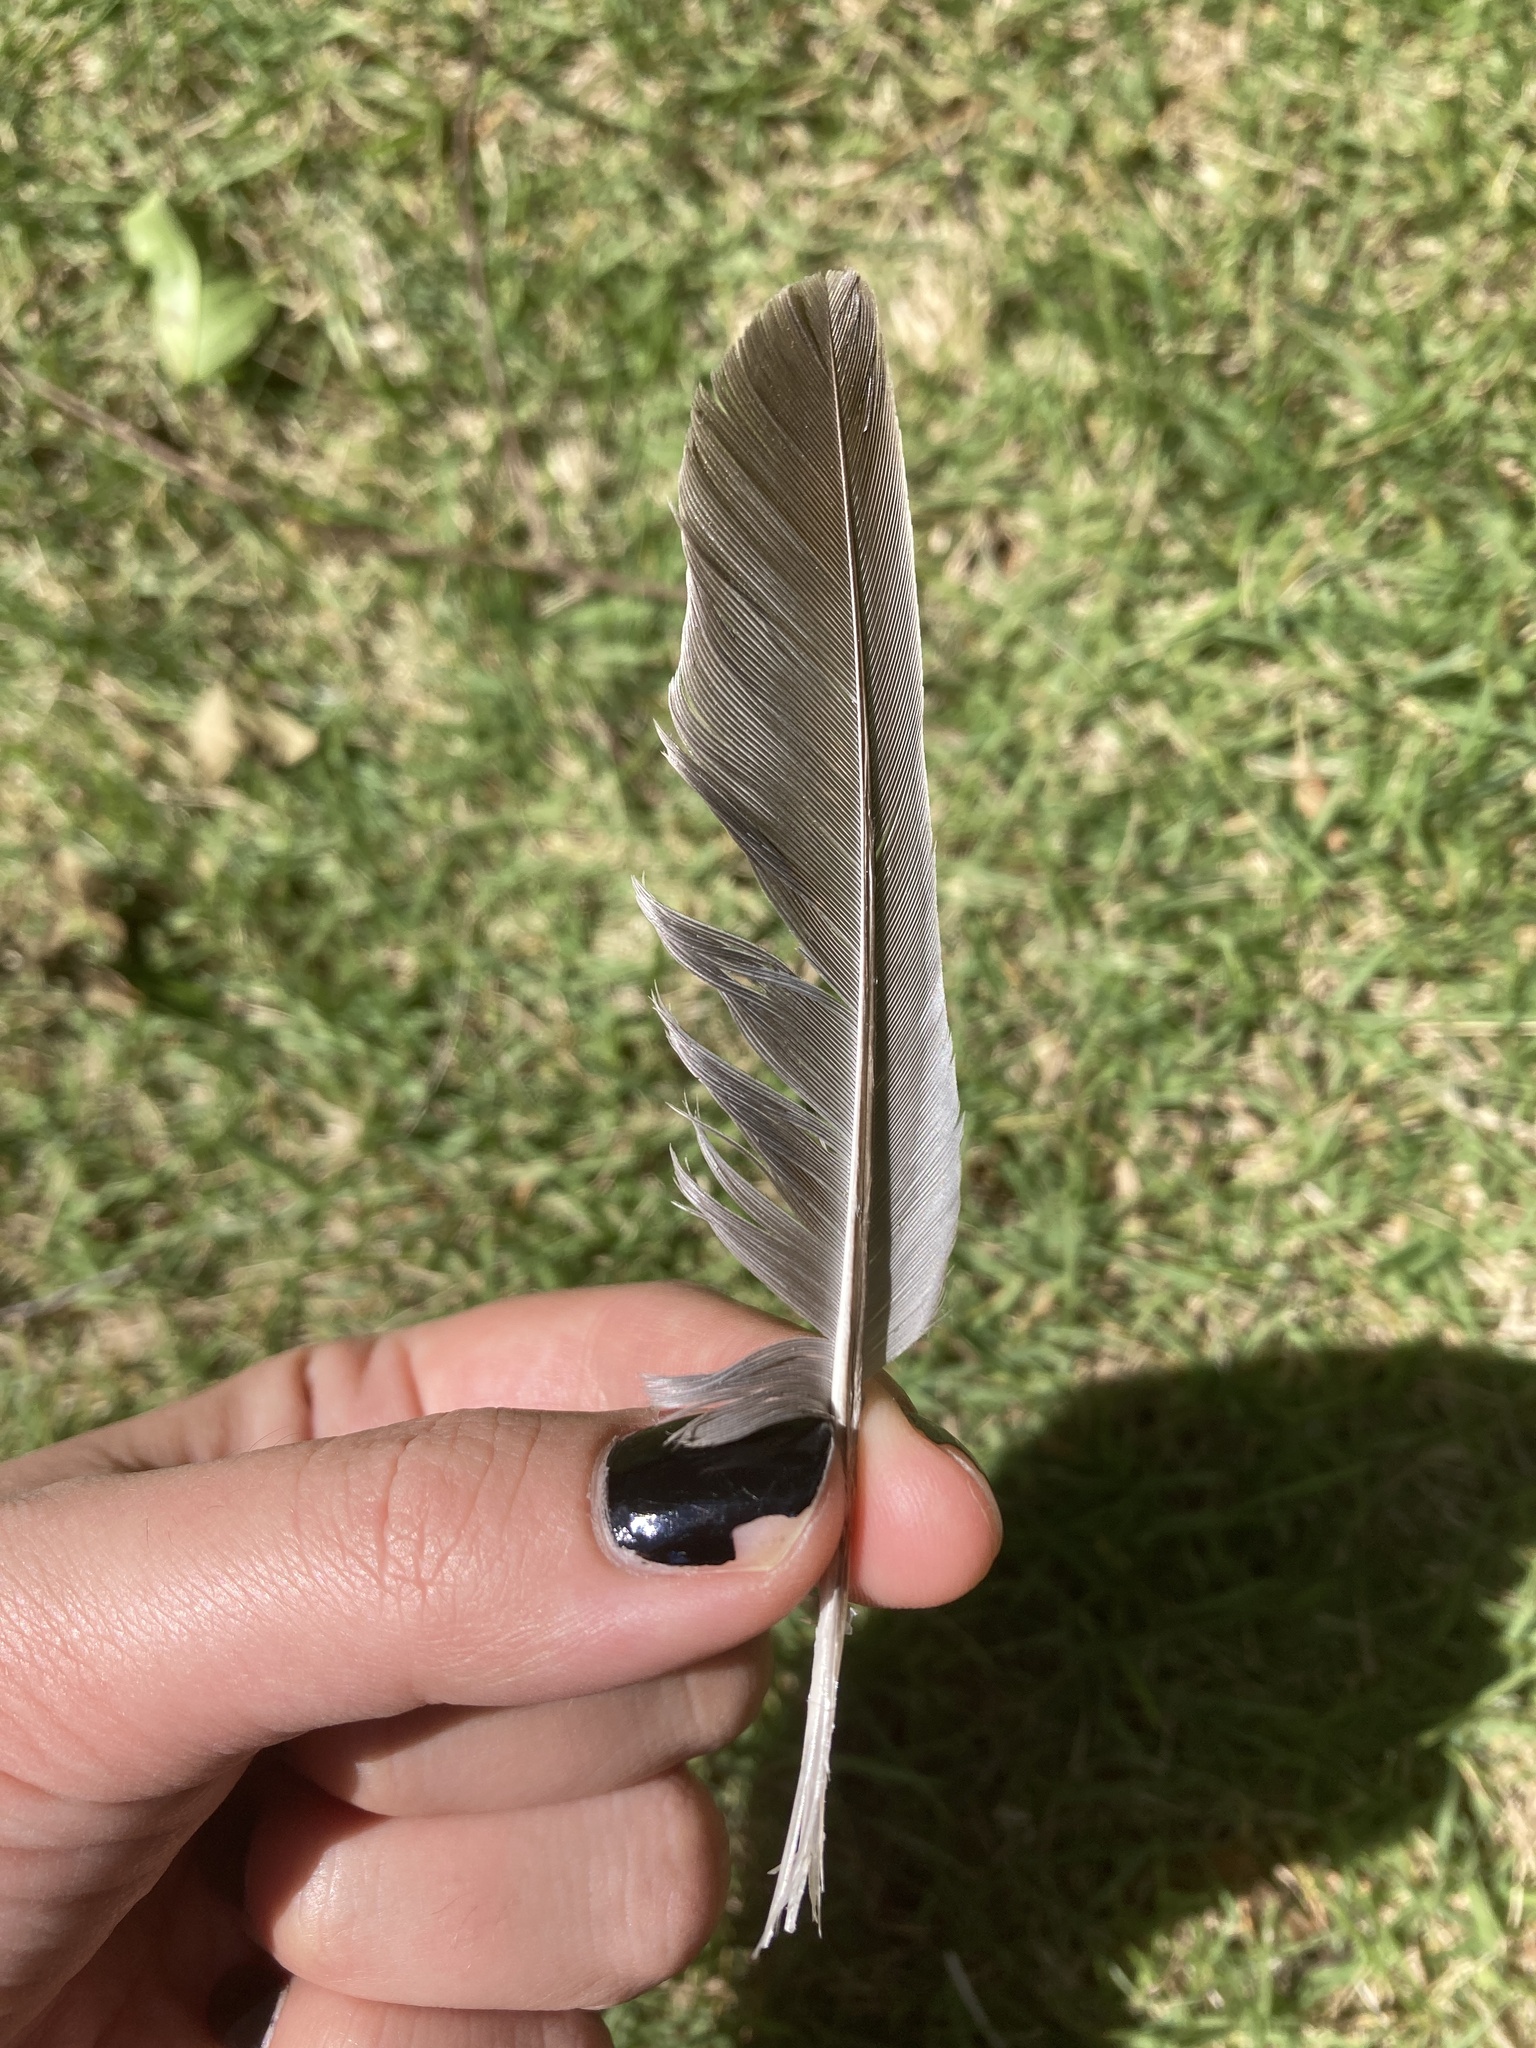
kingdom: Animalia
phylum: Chordata
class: Aves
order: Columbiformes
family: Columbidae
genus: Zenaida
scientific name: Zenaida macroura
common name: Mourning dove
